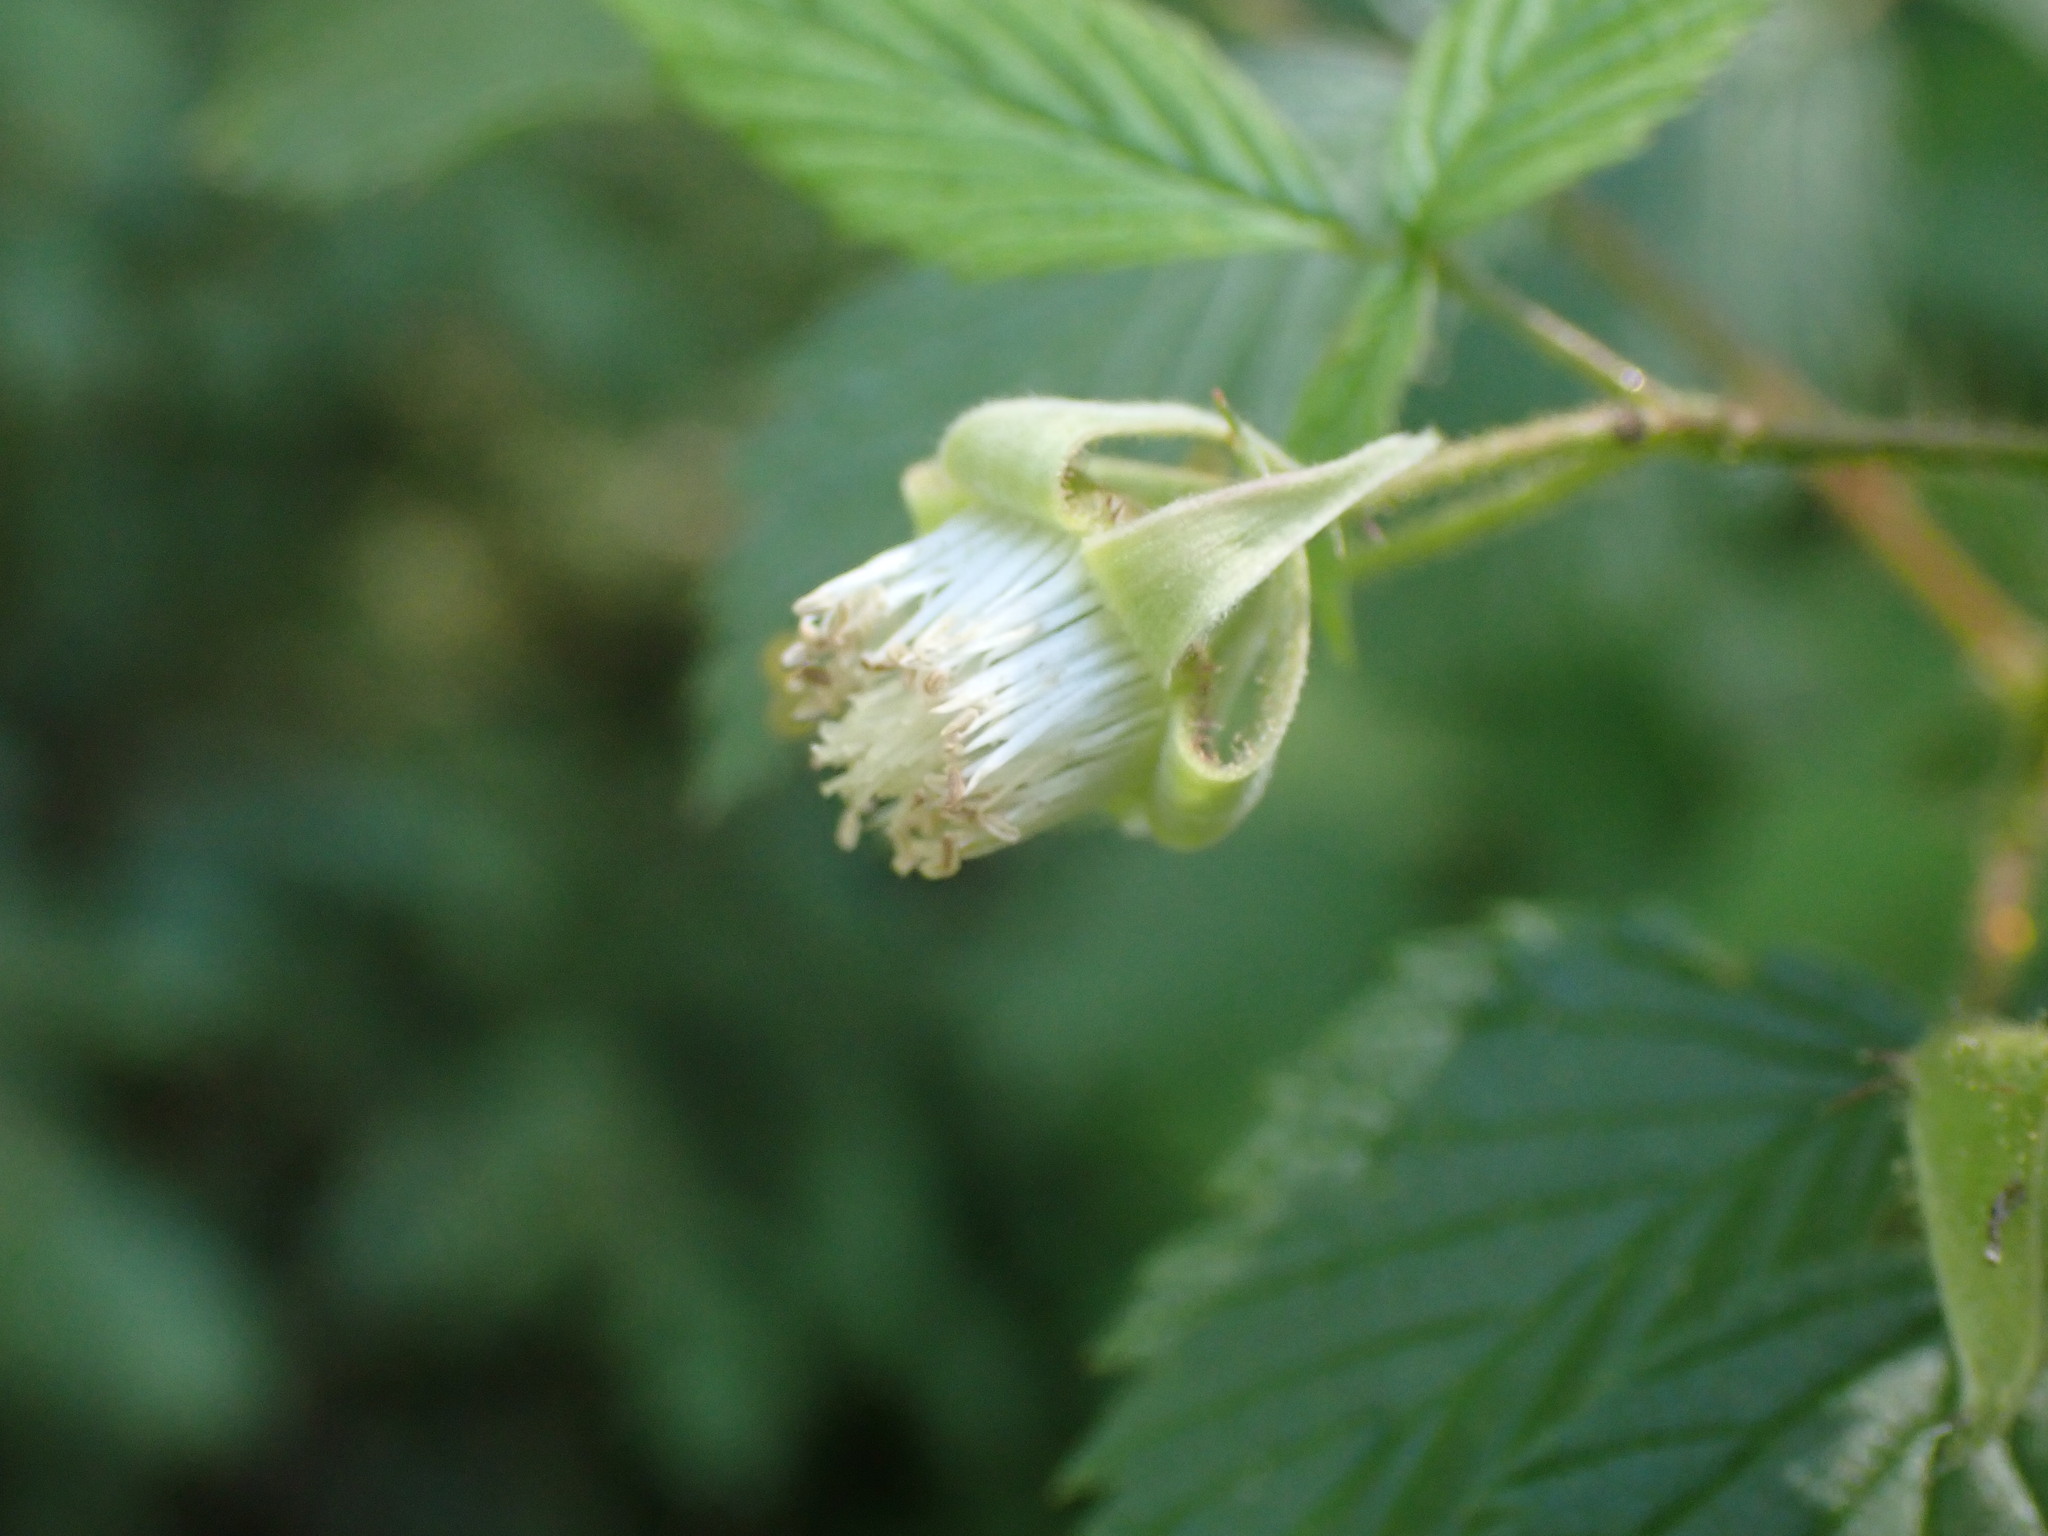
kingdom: Plantae
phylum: Tracheophyta
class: Magnoliopsida
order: Rosales
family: Rosaceae
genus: Rubus
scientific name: Rubus idaeus
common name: Raspberry
